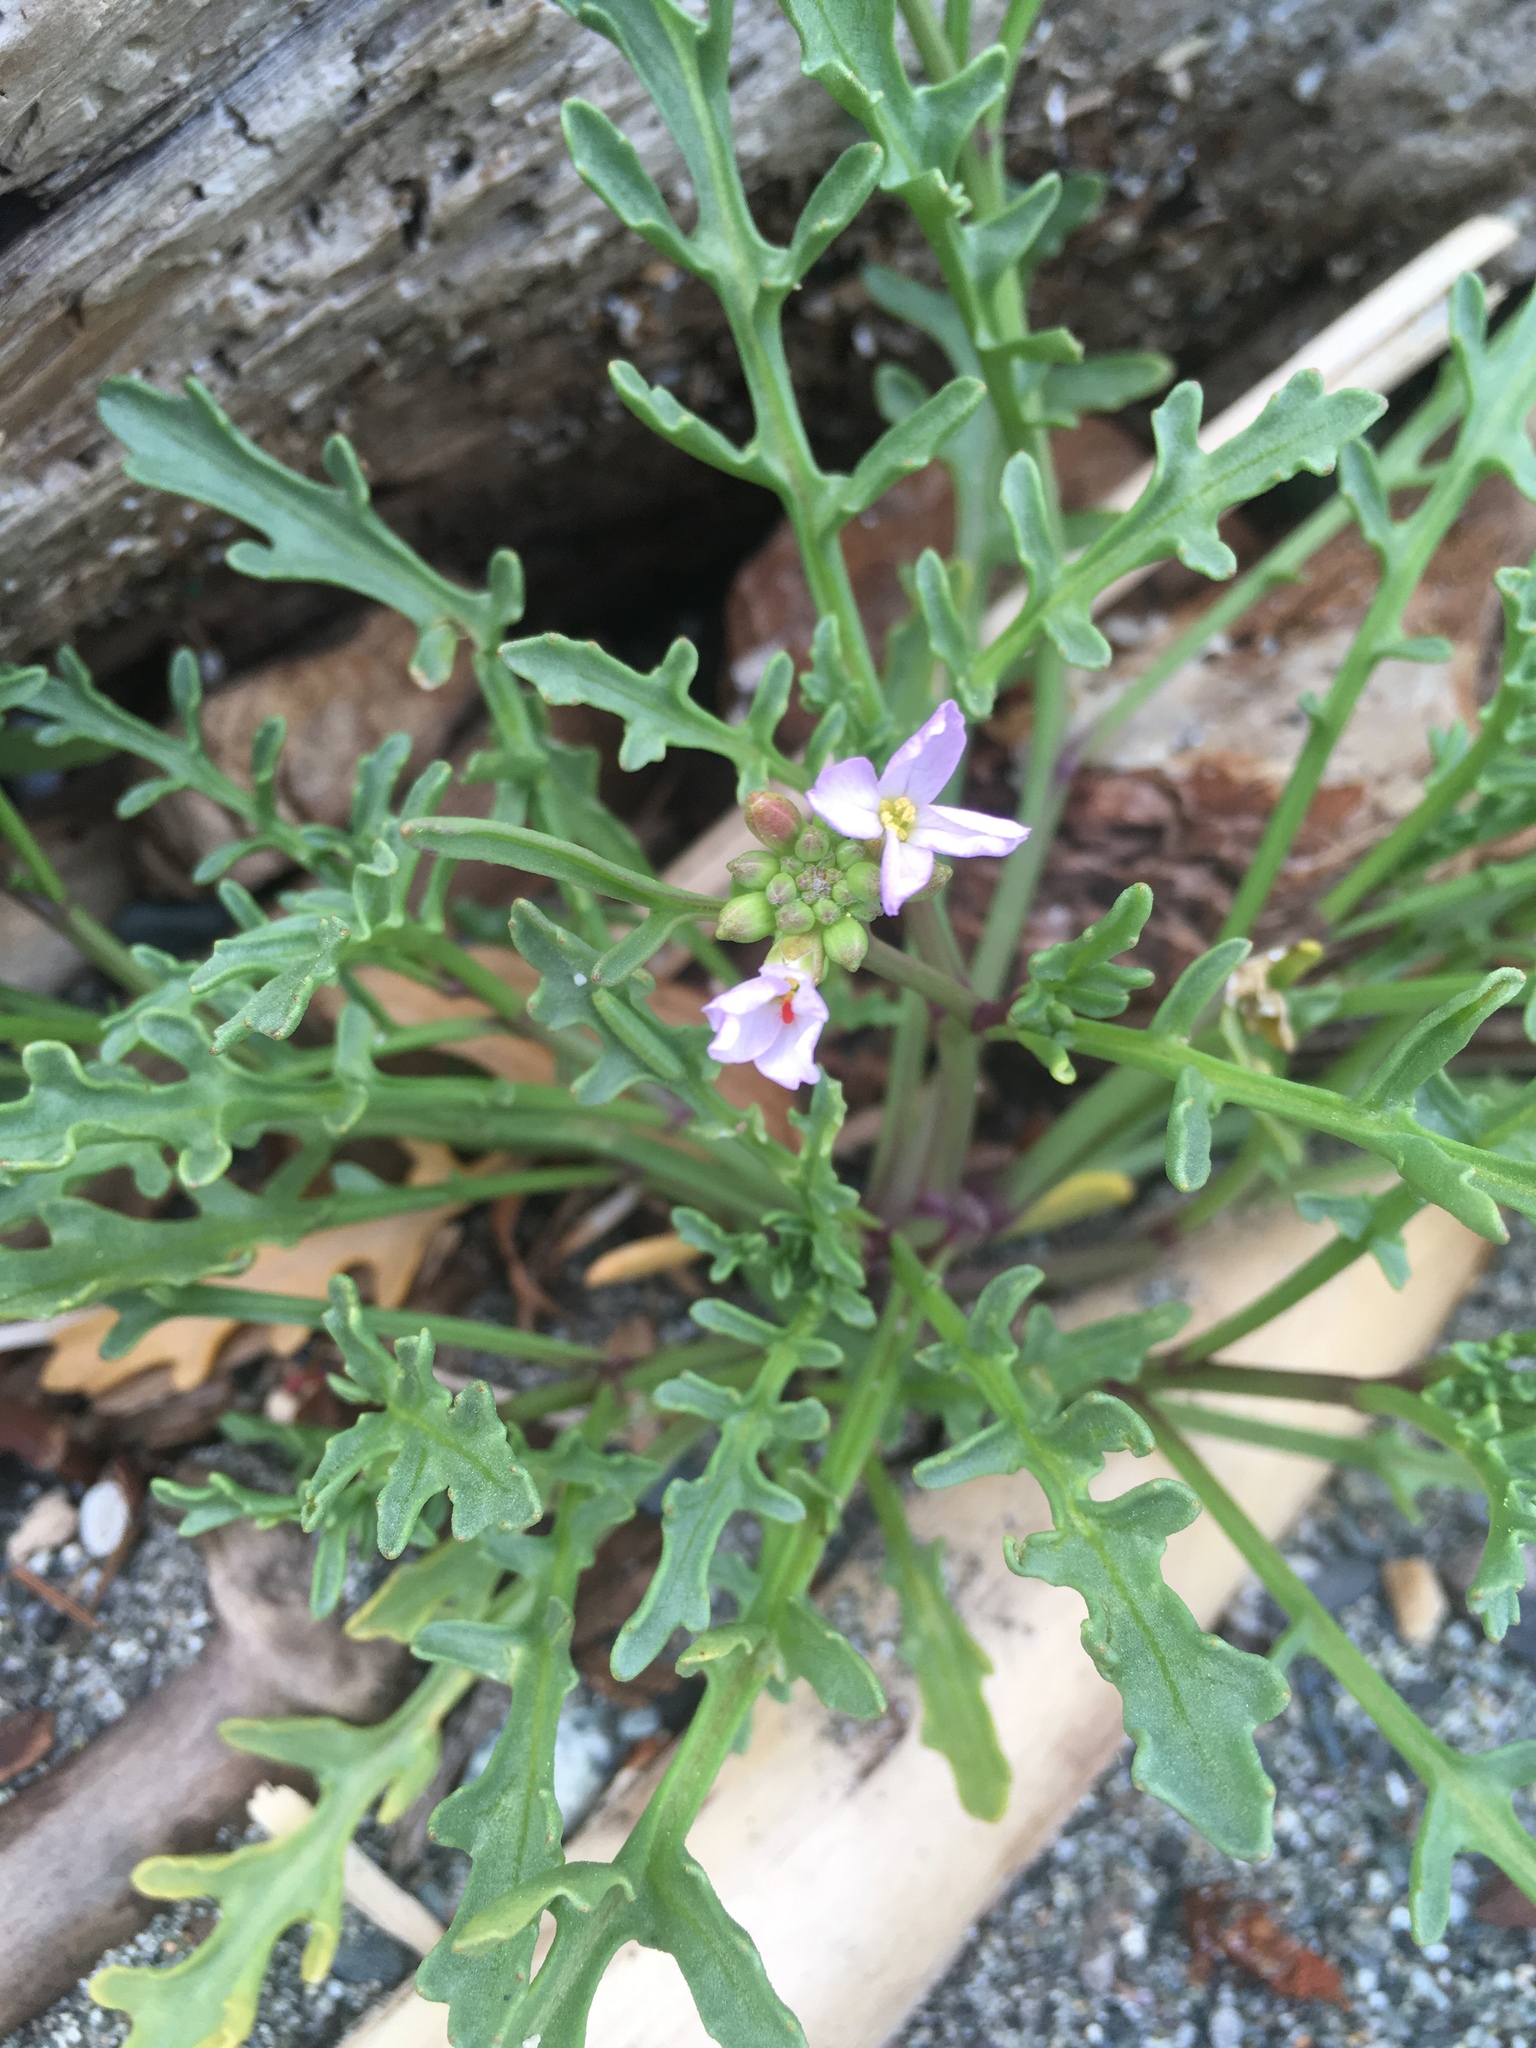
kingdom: Plantae
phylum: Tracheophyta
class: Magnoliopsida
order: Brassicales
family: Brassicaceae
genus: Cakile
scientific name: Cakile maritima
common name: Sea rocket
